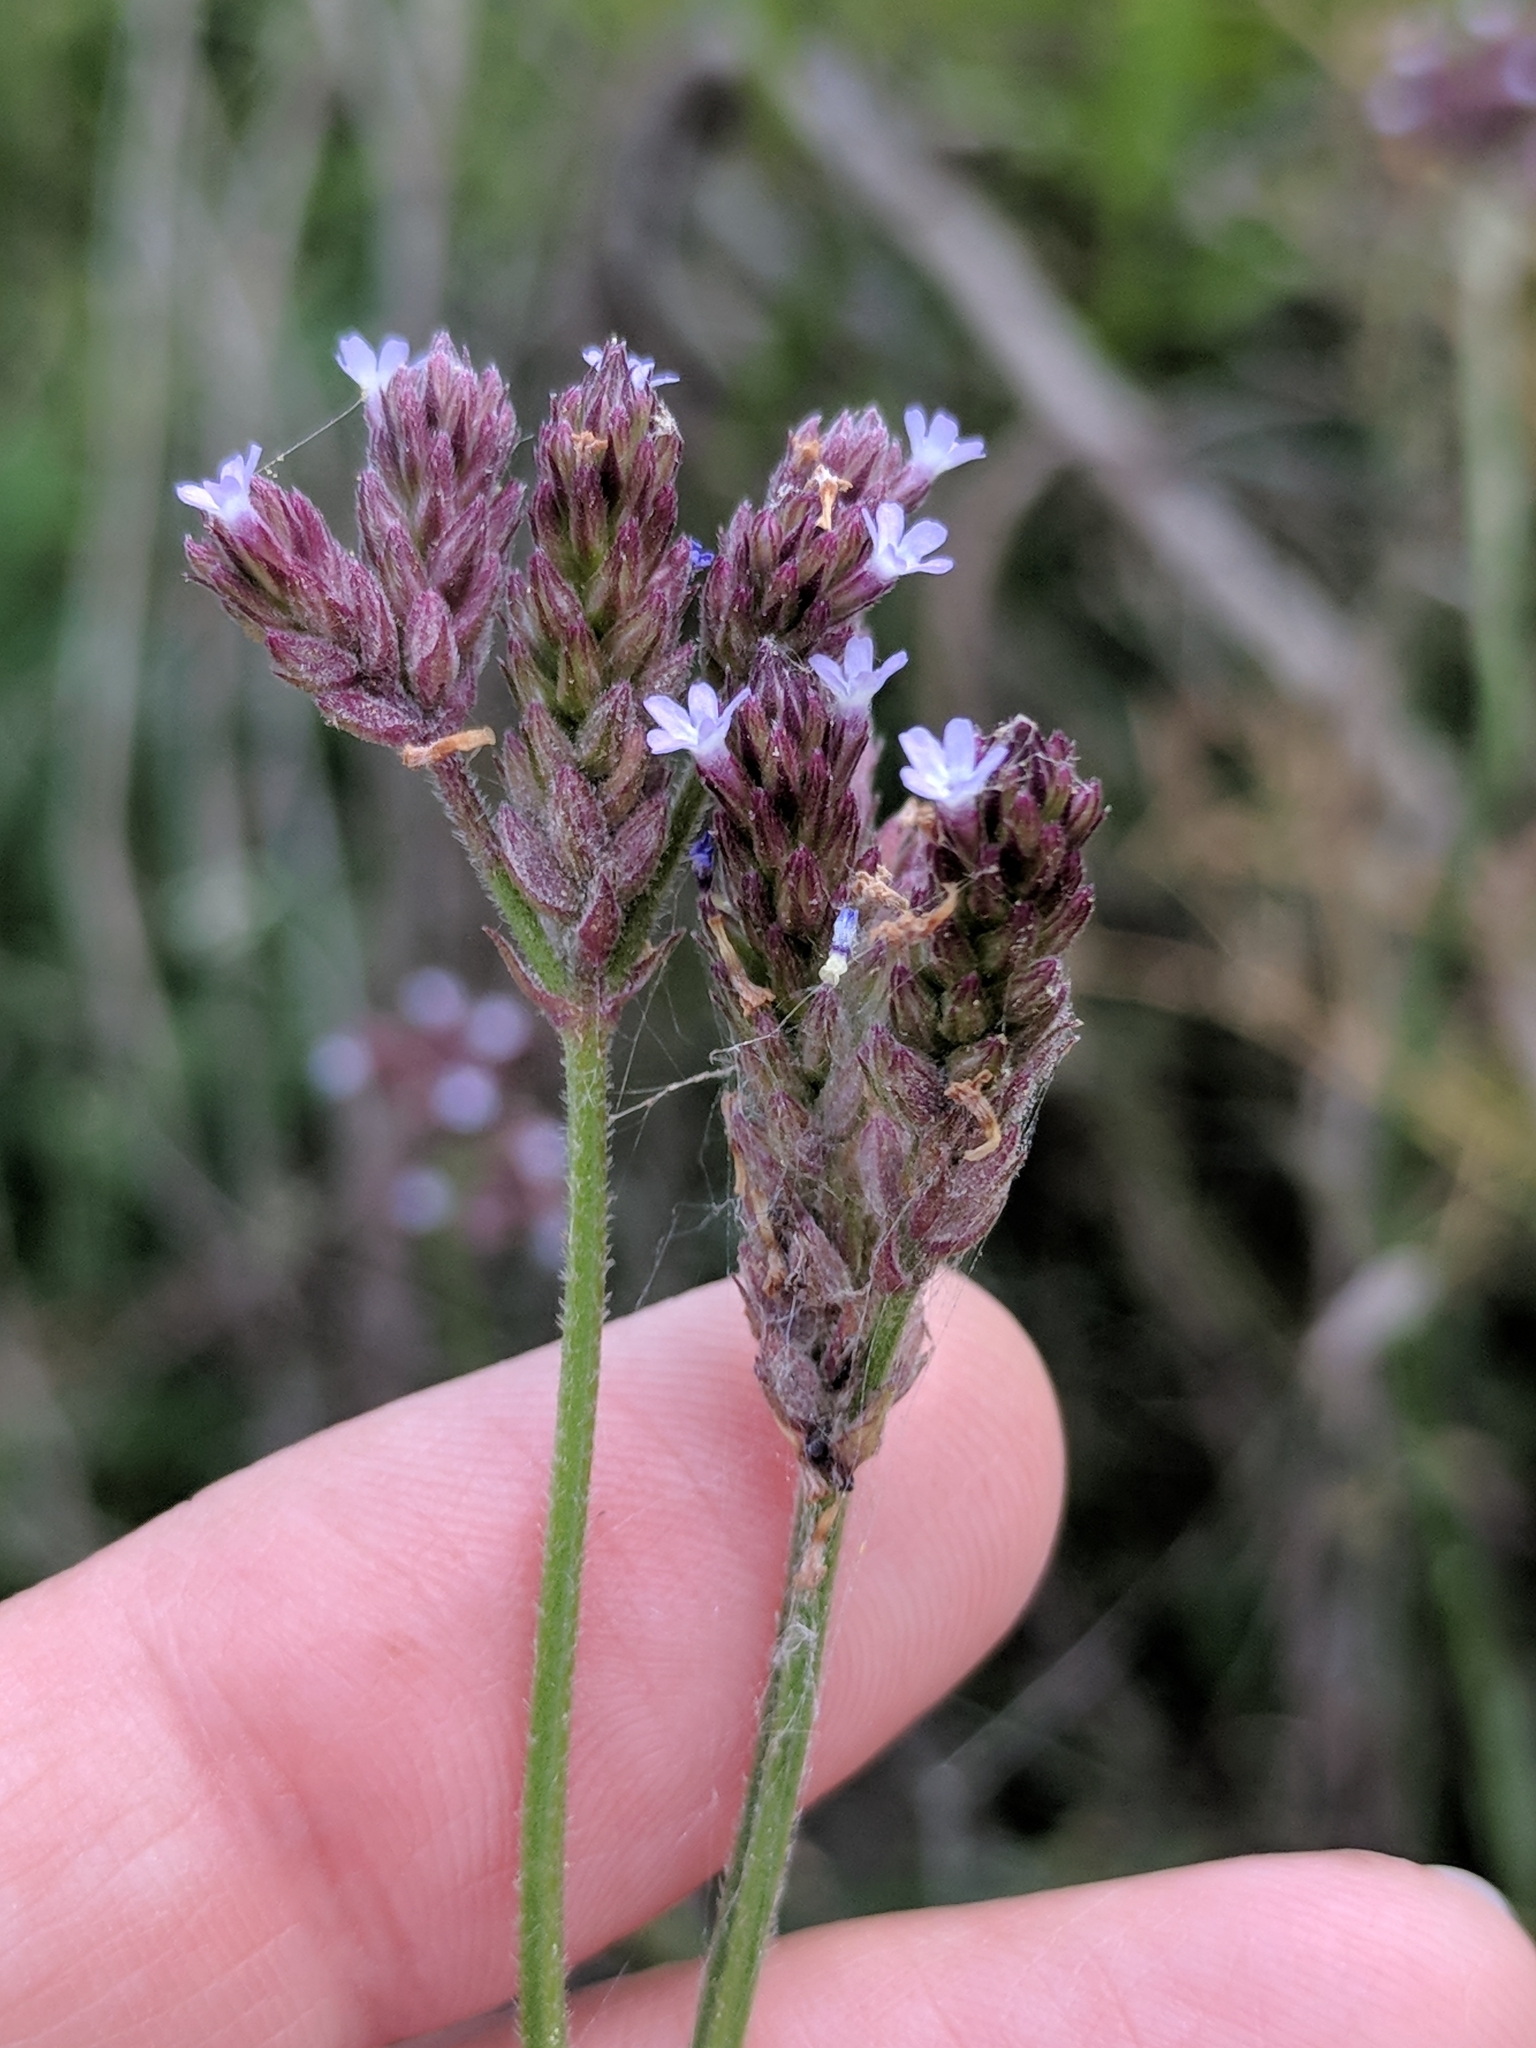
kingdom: Plantae
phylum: Tracheophyta
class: Magnoliopsida
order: Lamiales
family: Verbenaceae
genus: Verbena
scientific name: Verbena brasiliensis
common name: Brazilian vervain
